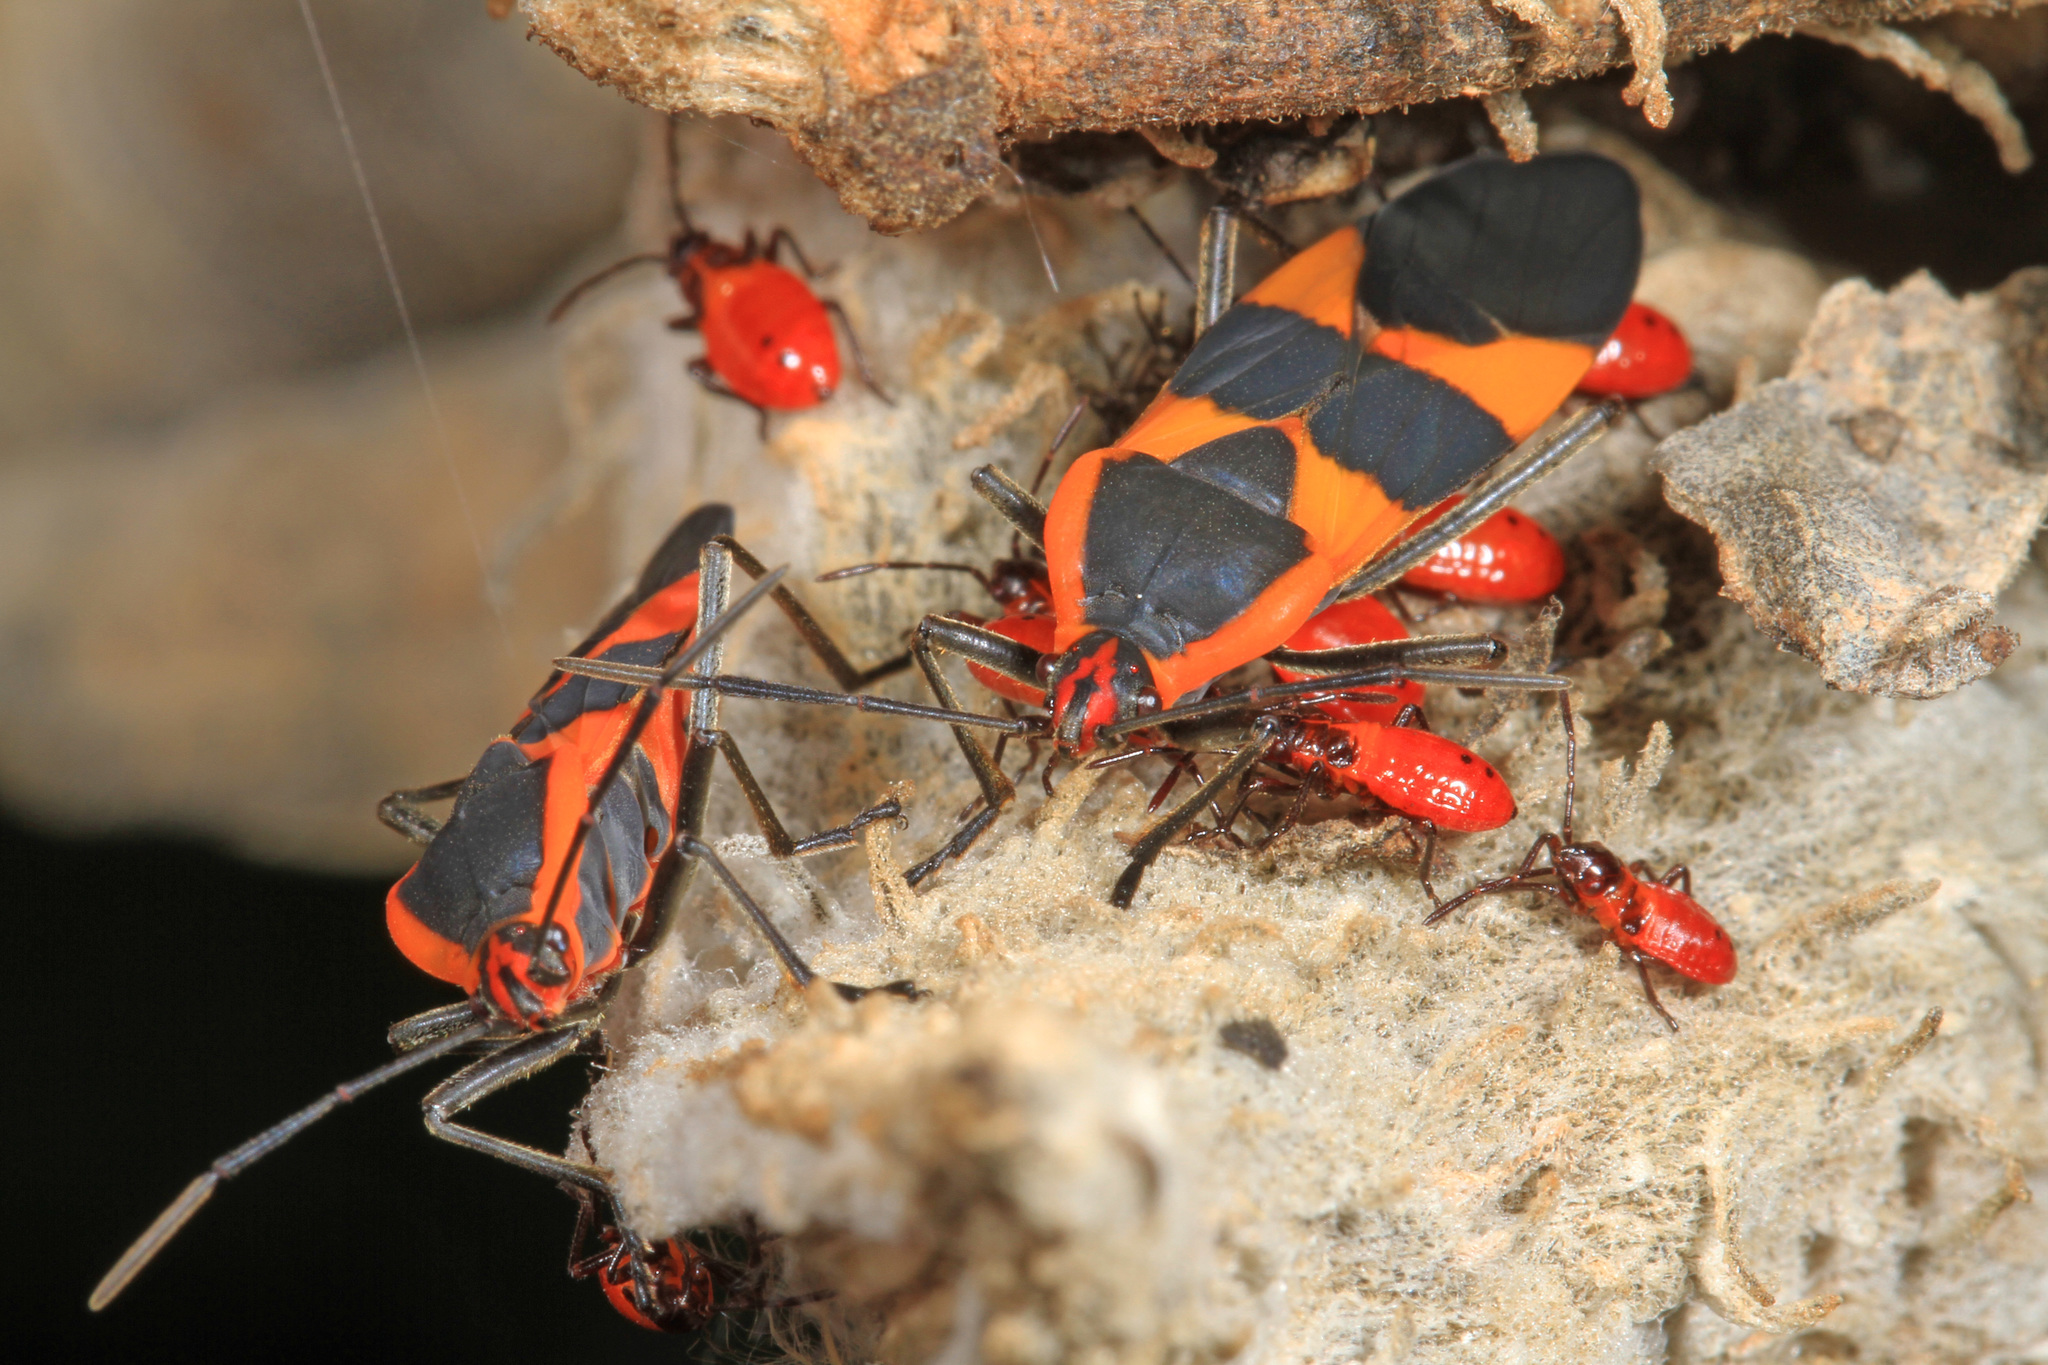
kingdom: Animalia
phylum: Arthropoda
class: Insecta
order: Hemiptera
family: Lygaeidae
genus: Oncopeltus
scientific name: Oncopeltus fasciatus
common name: Large milkweed bug
